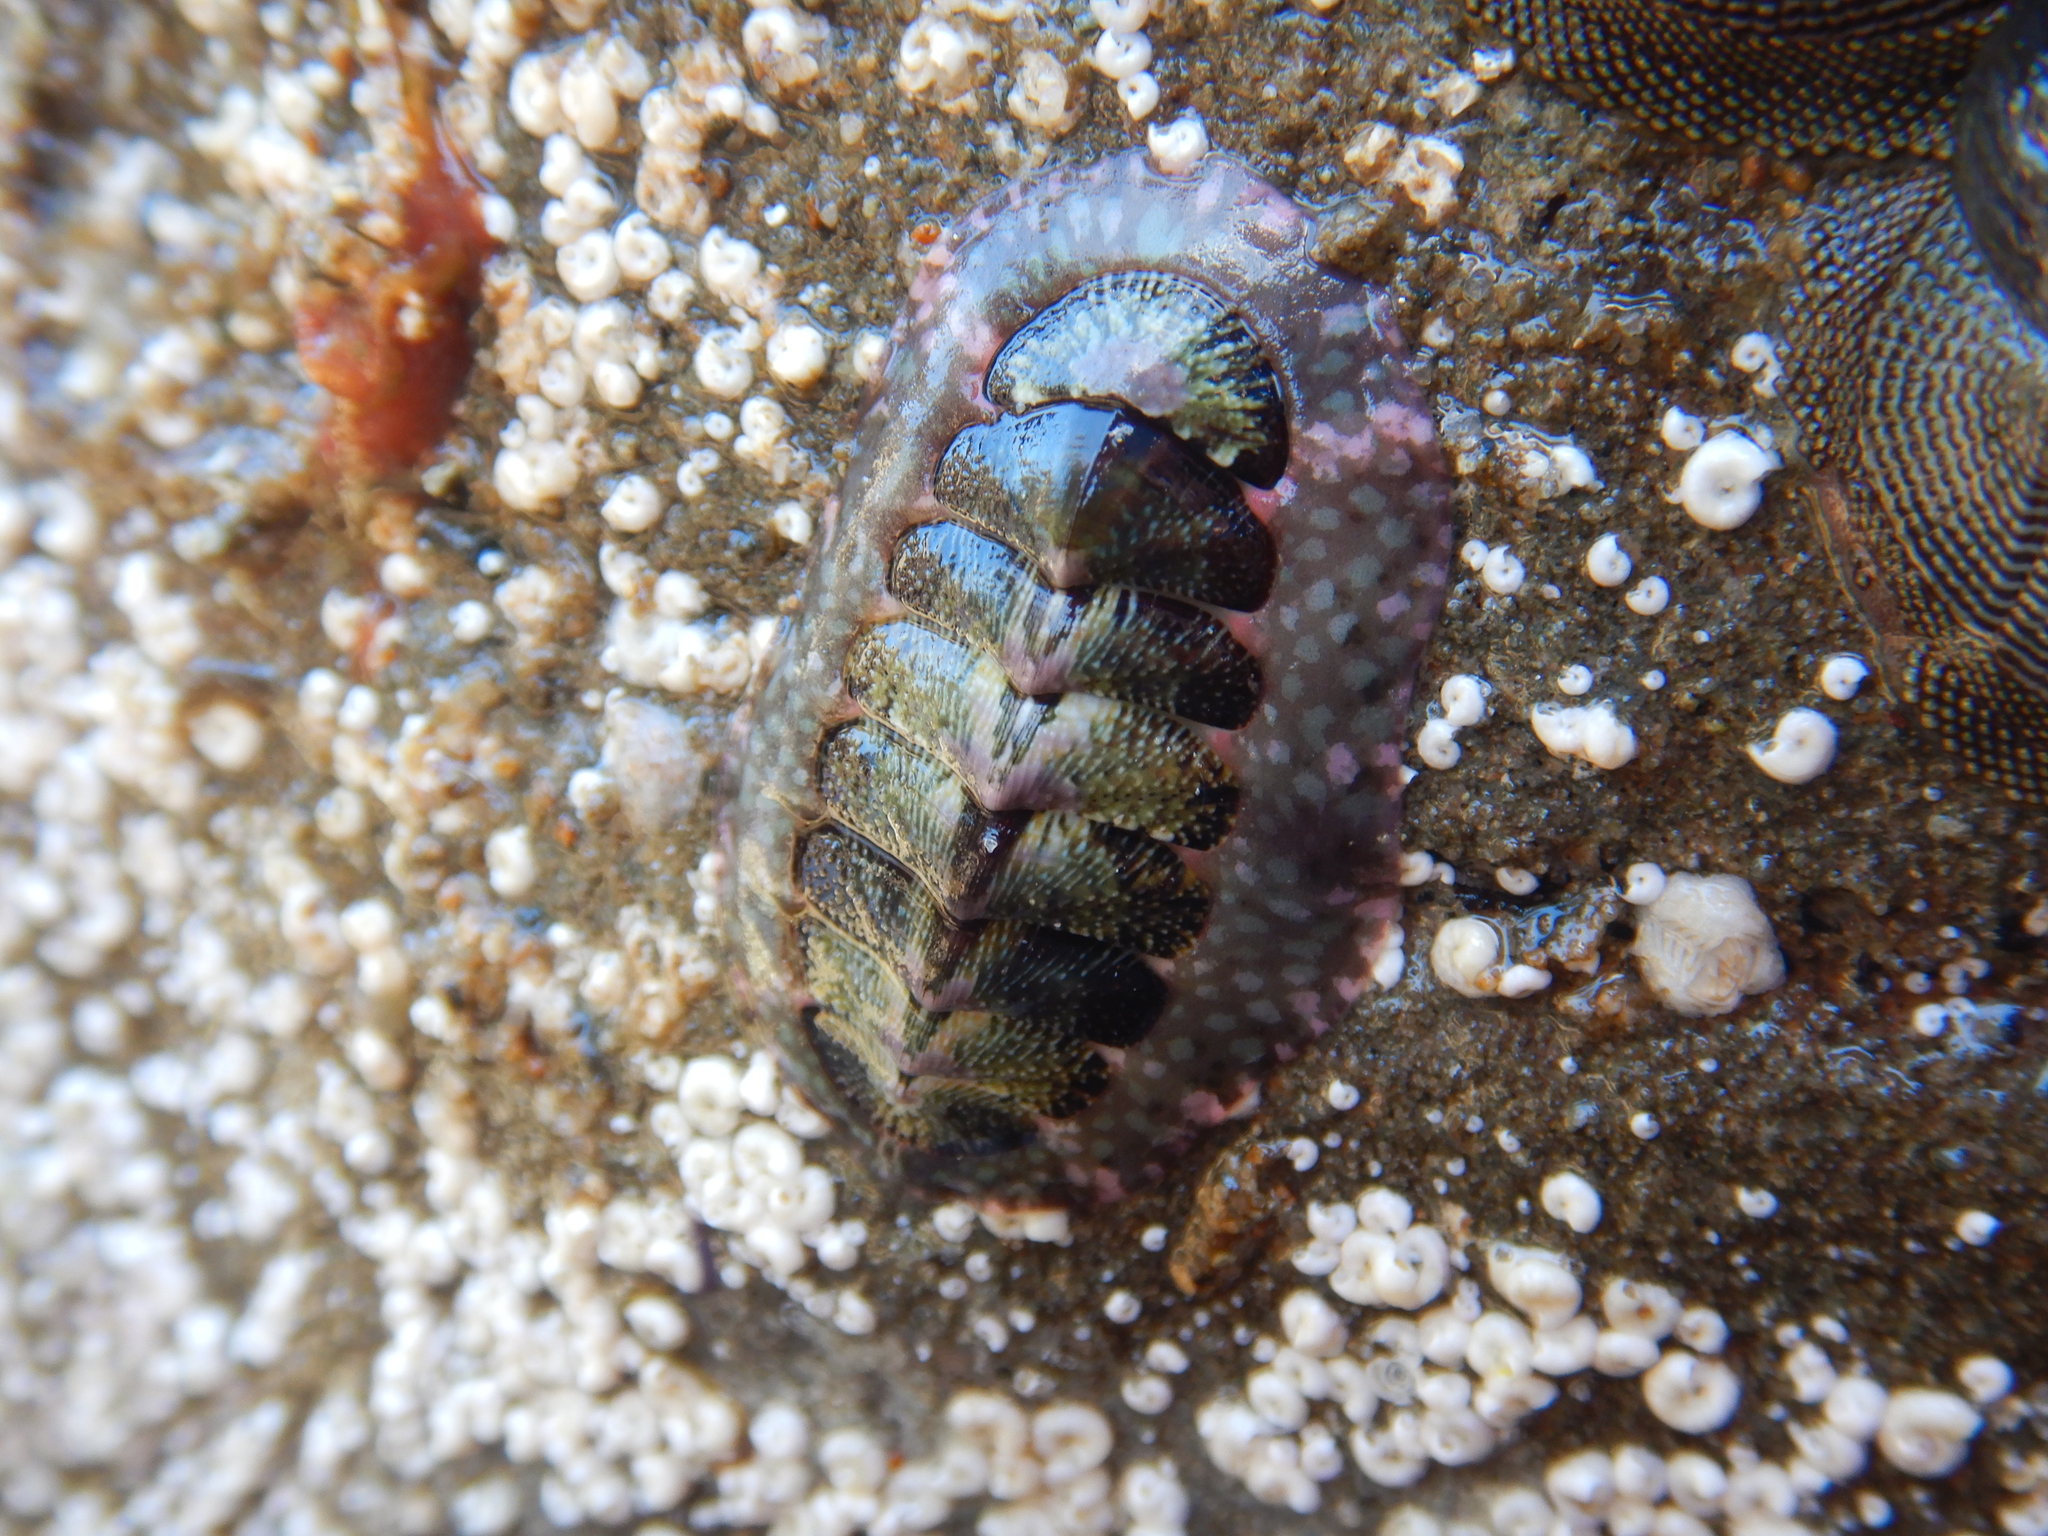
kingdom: Animalia
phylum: Mollusca
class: Polyplacophora
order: Chitonida
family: Chitonidae
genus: Tonicia
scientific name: Tonicia chilensis
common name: Chilean chiton
